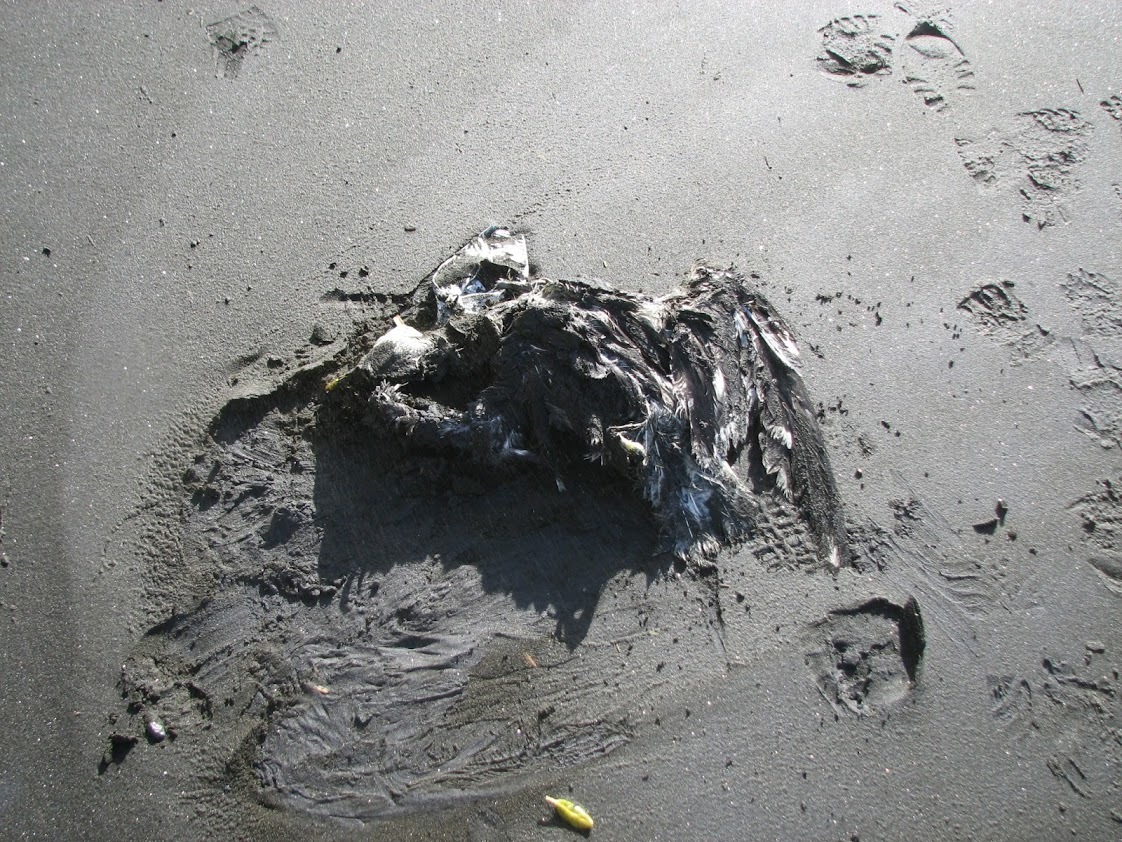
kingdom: Animalia
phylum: Chordata
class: Aves
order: Charadriiformes
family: Laridae
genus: Larus
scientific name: Larus dominicanus
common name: Kelp gull
